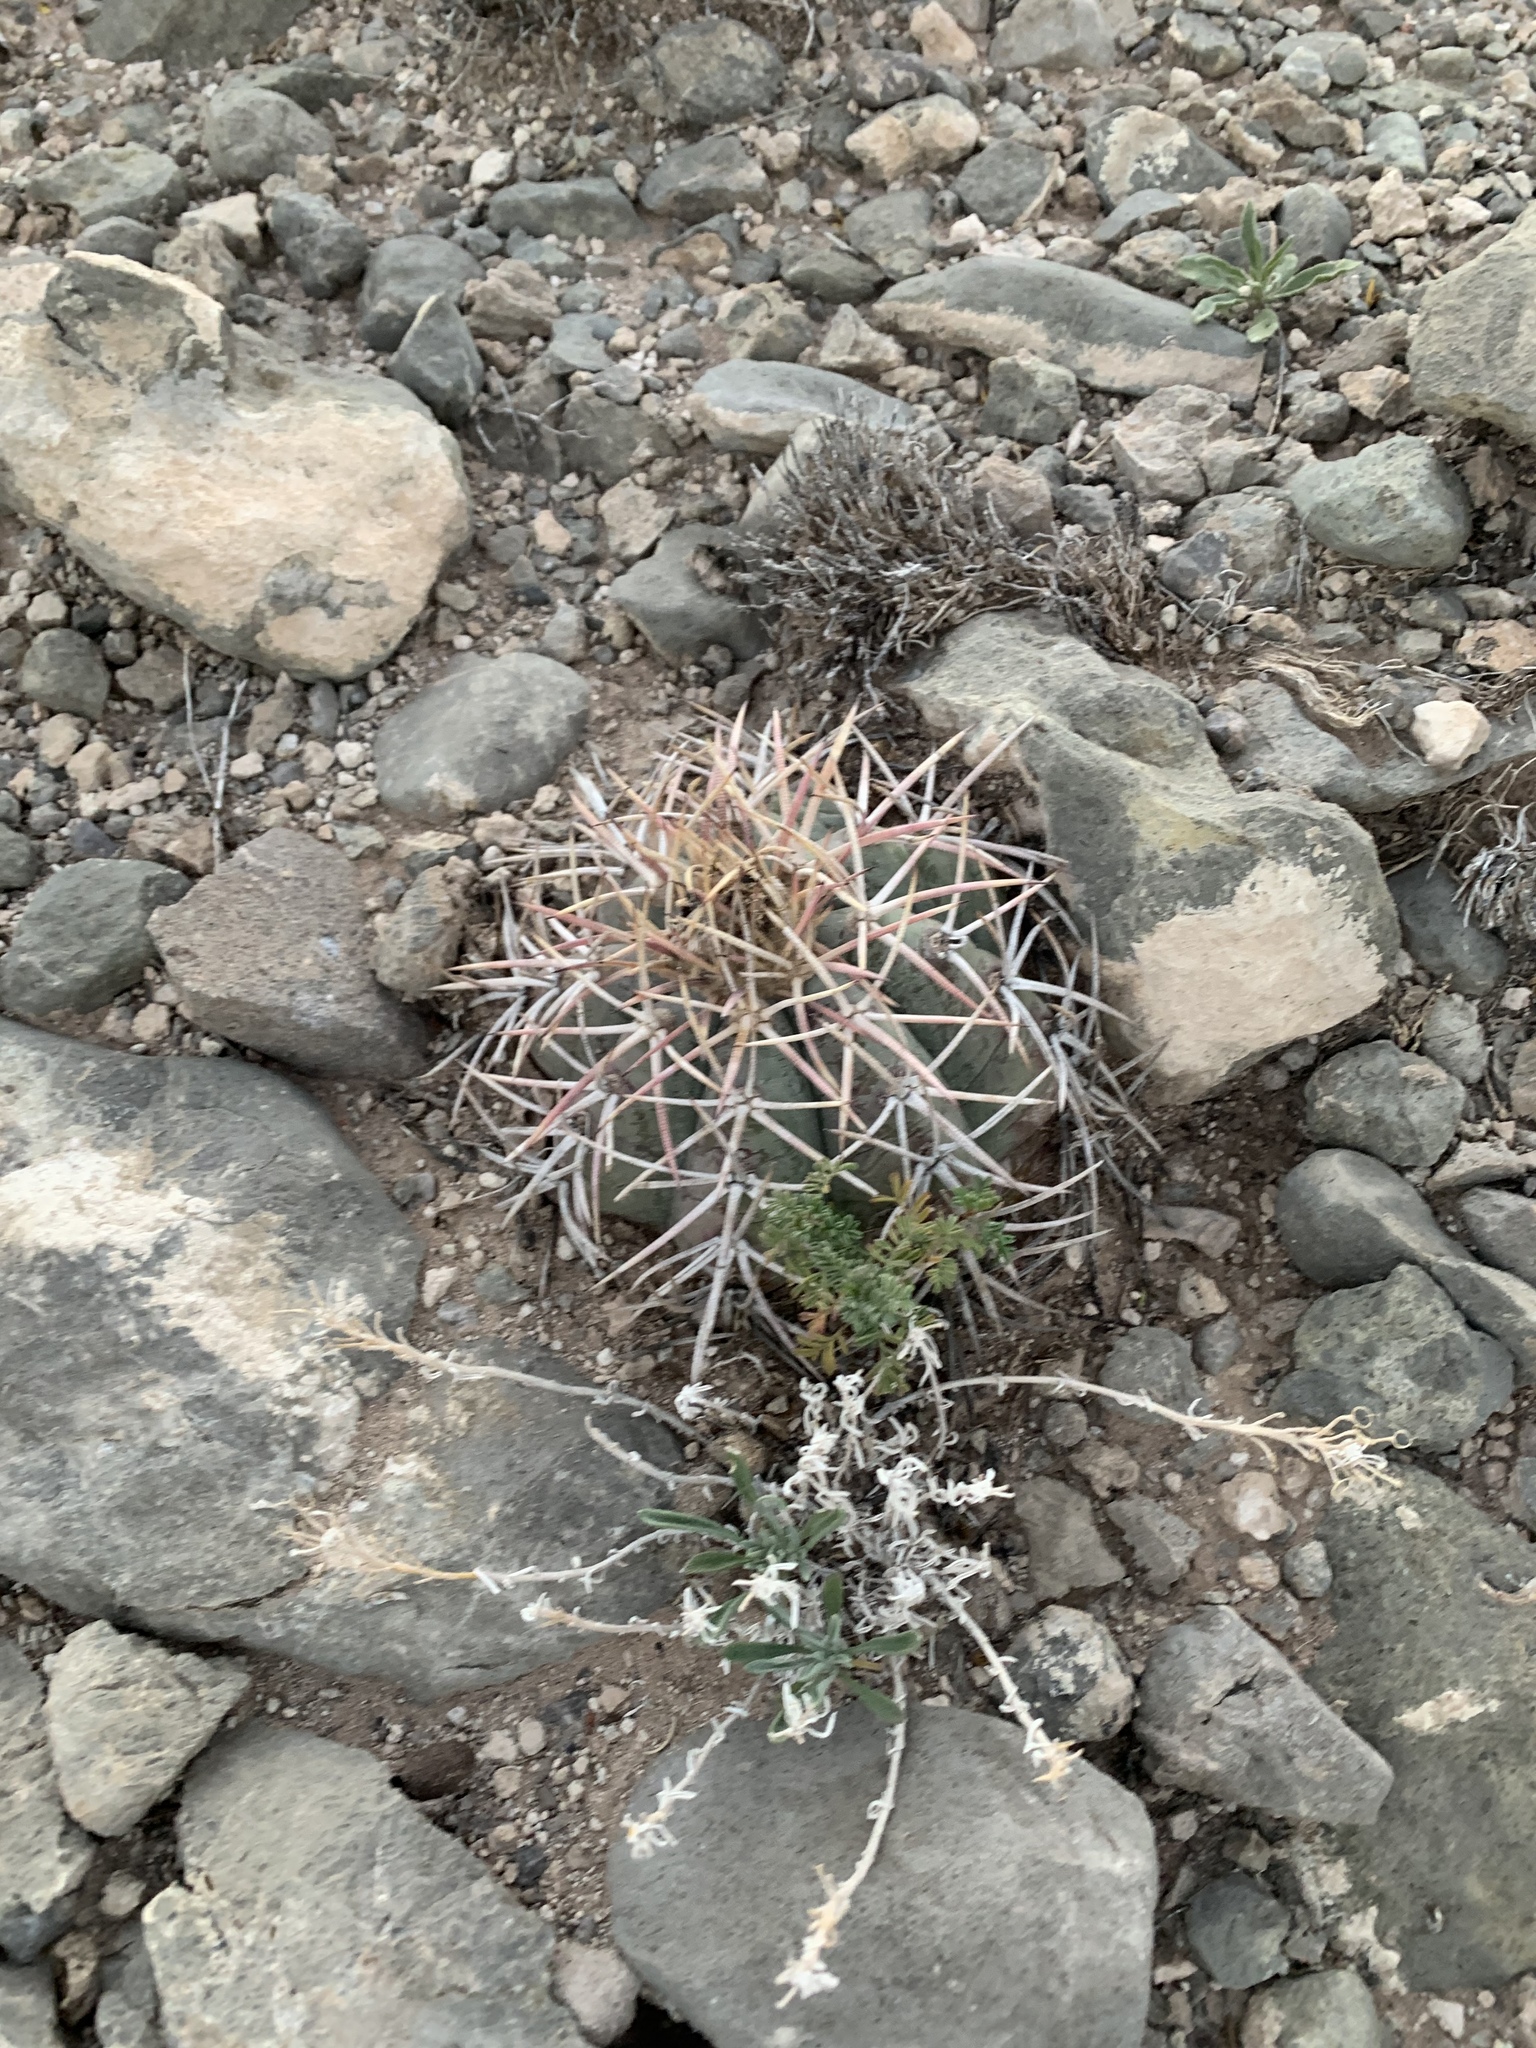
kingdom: Plantae
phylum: Tracheophyta
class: Magnoliopsida
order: Caryophyllales
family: Cactaceae
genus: Echinocactus
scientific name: Echinocactus horizonthalonius
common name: Devilshead
